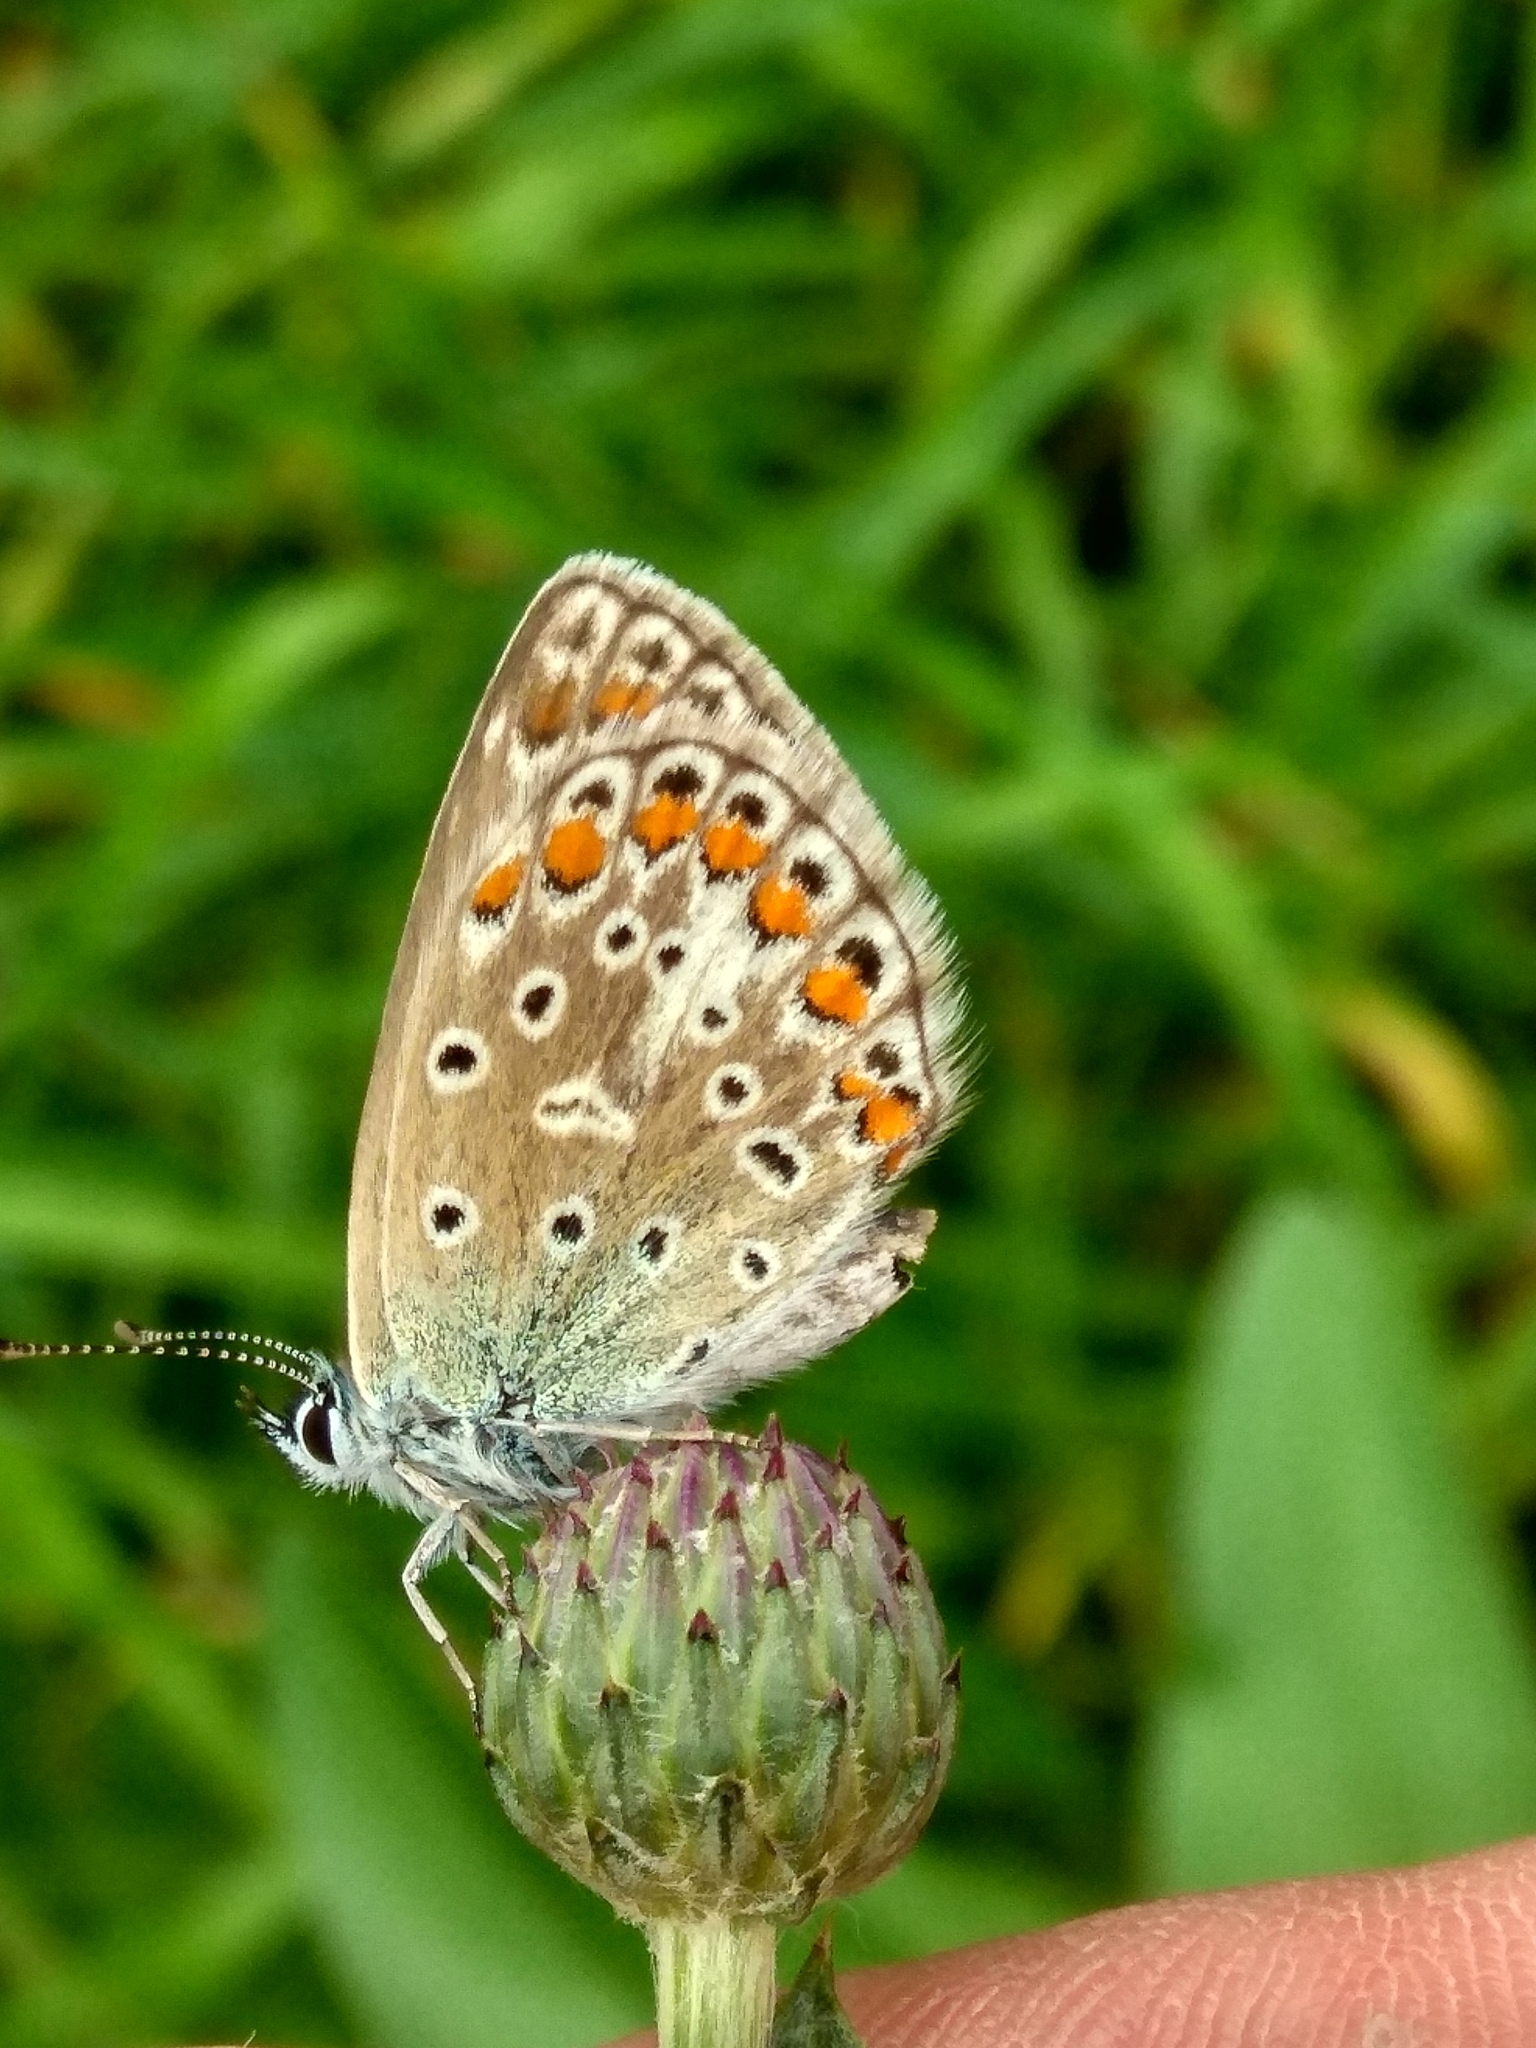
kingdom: Animalia
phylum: Arthropoda
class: Insecta
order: Lepidoptera
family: Lycaenidae
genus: Polyommatus
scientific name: Polyommatus icarus
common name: Common blue
